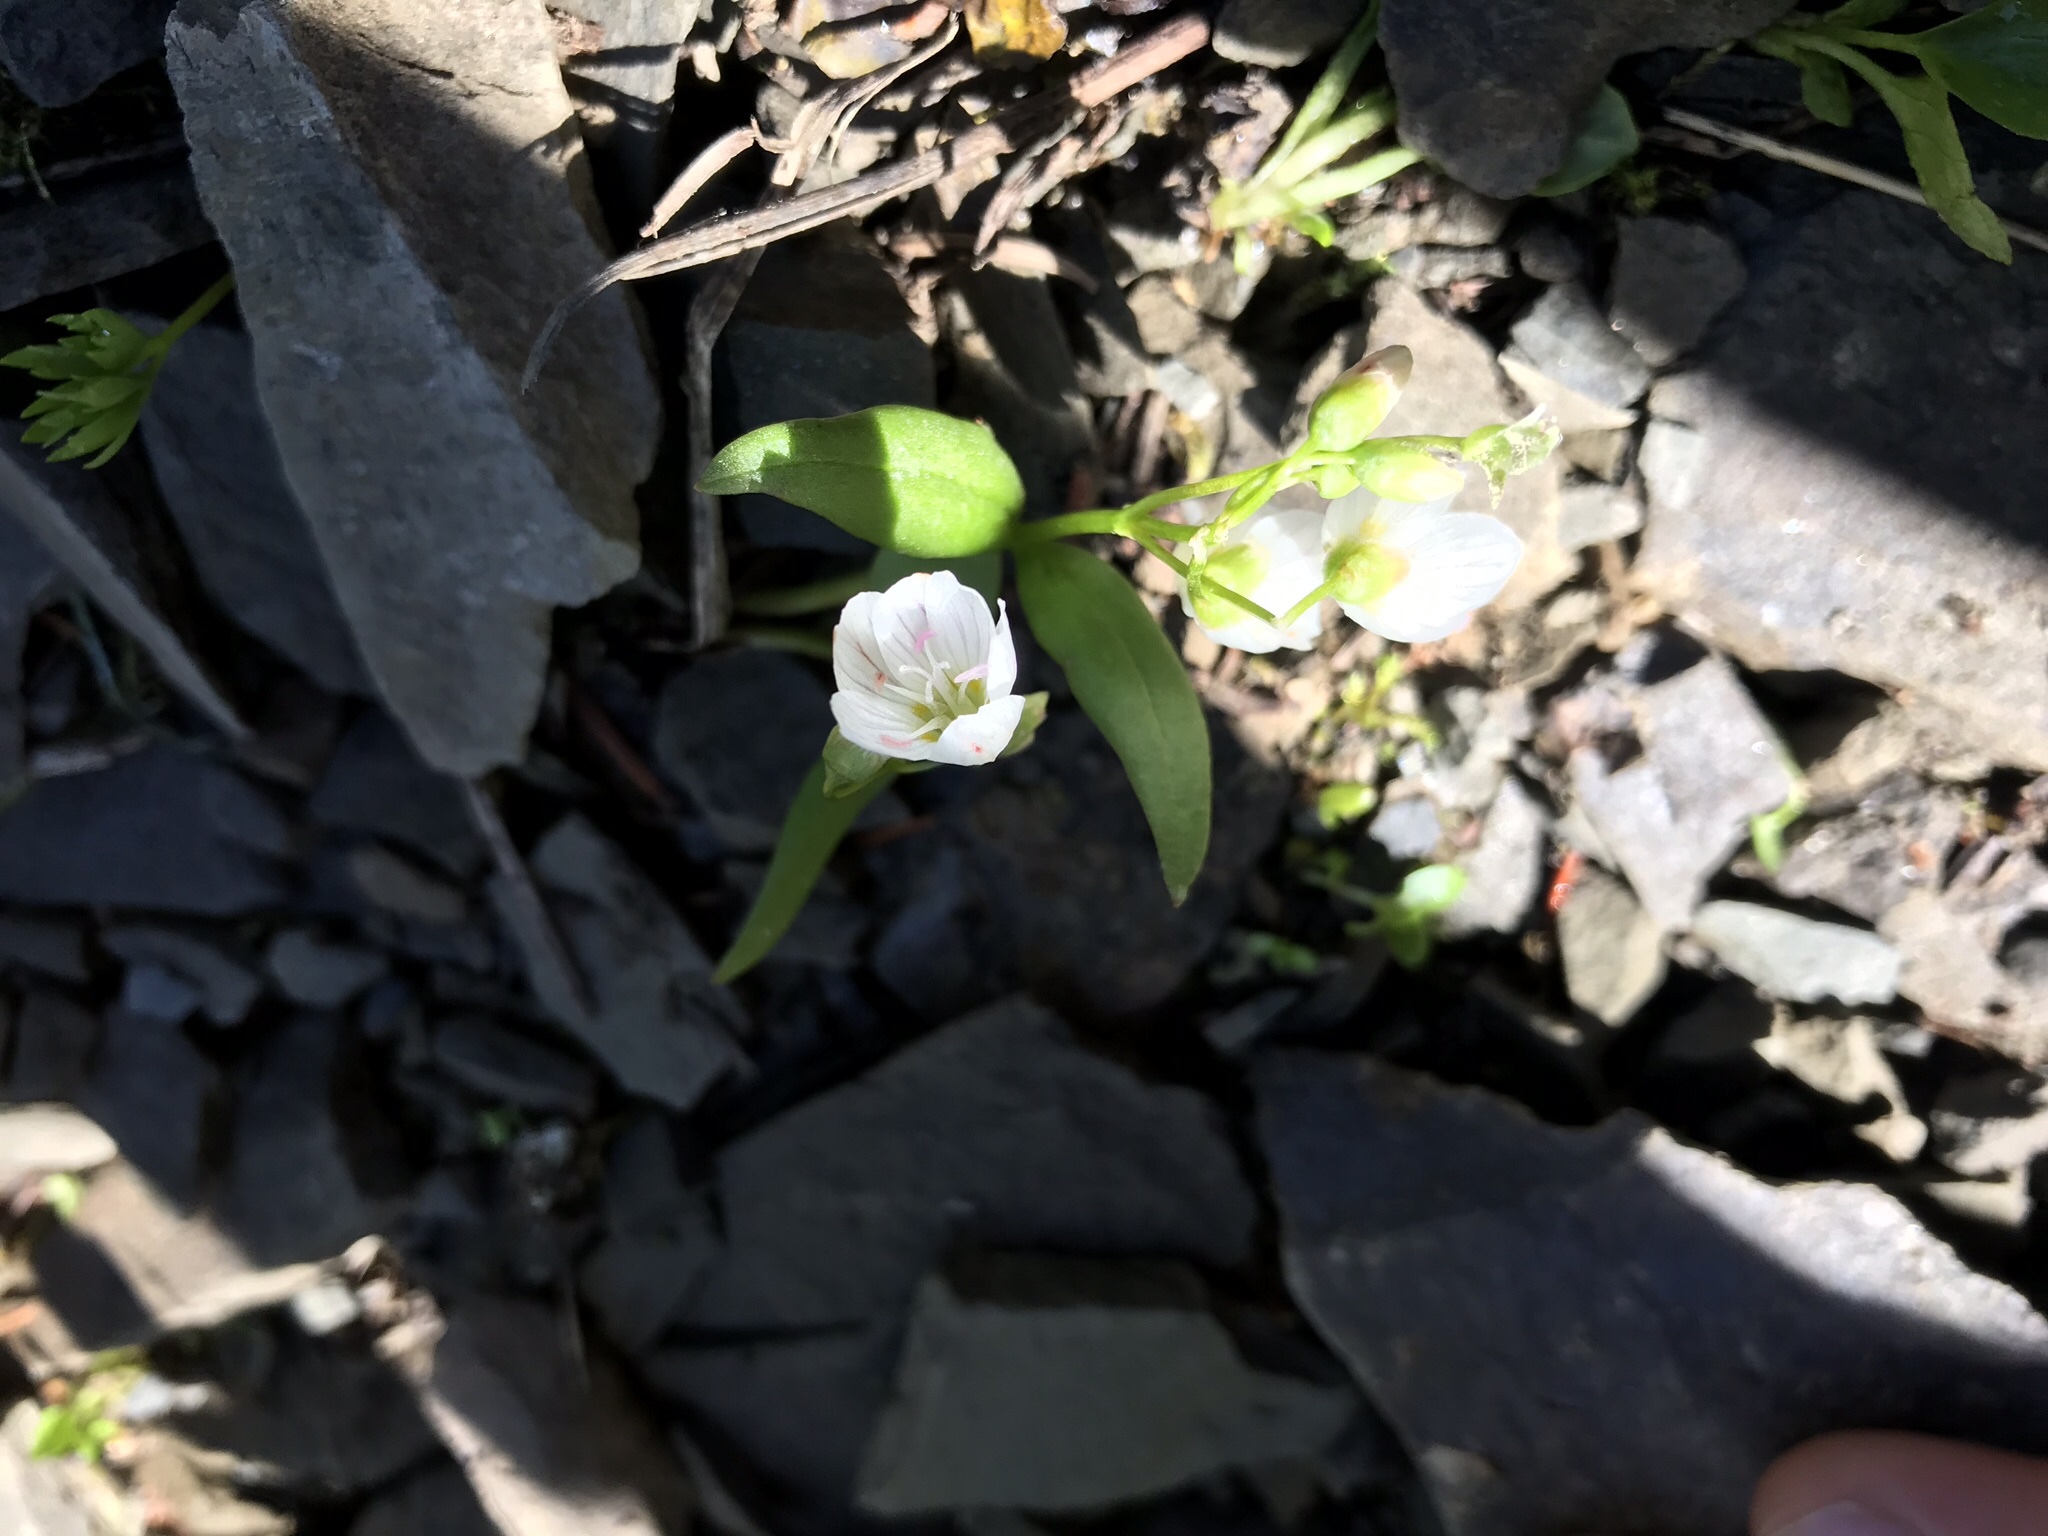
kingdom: Plantae
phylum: Tracheophyta
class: Magnoliopsida
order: Caryophyllales
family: Montiaceae
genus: Claytonia
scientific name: Claytonia lanceolata
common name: Western spring-beauty
